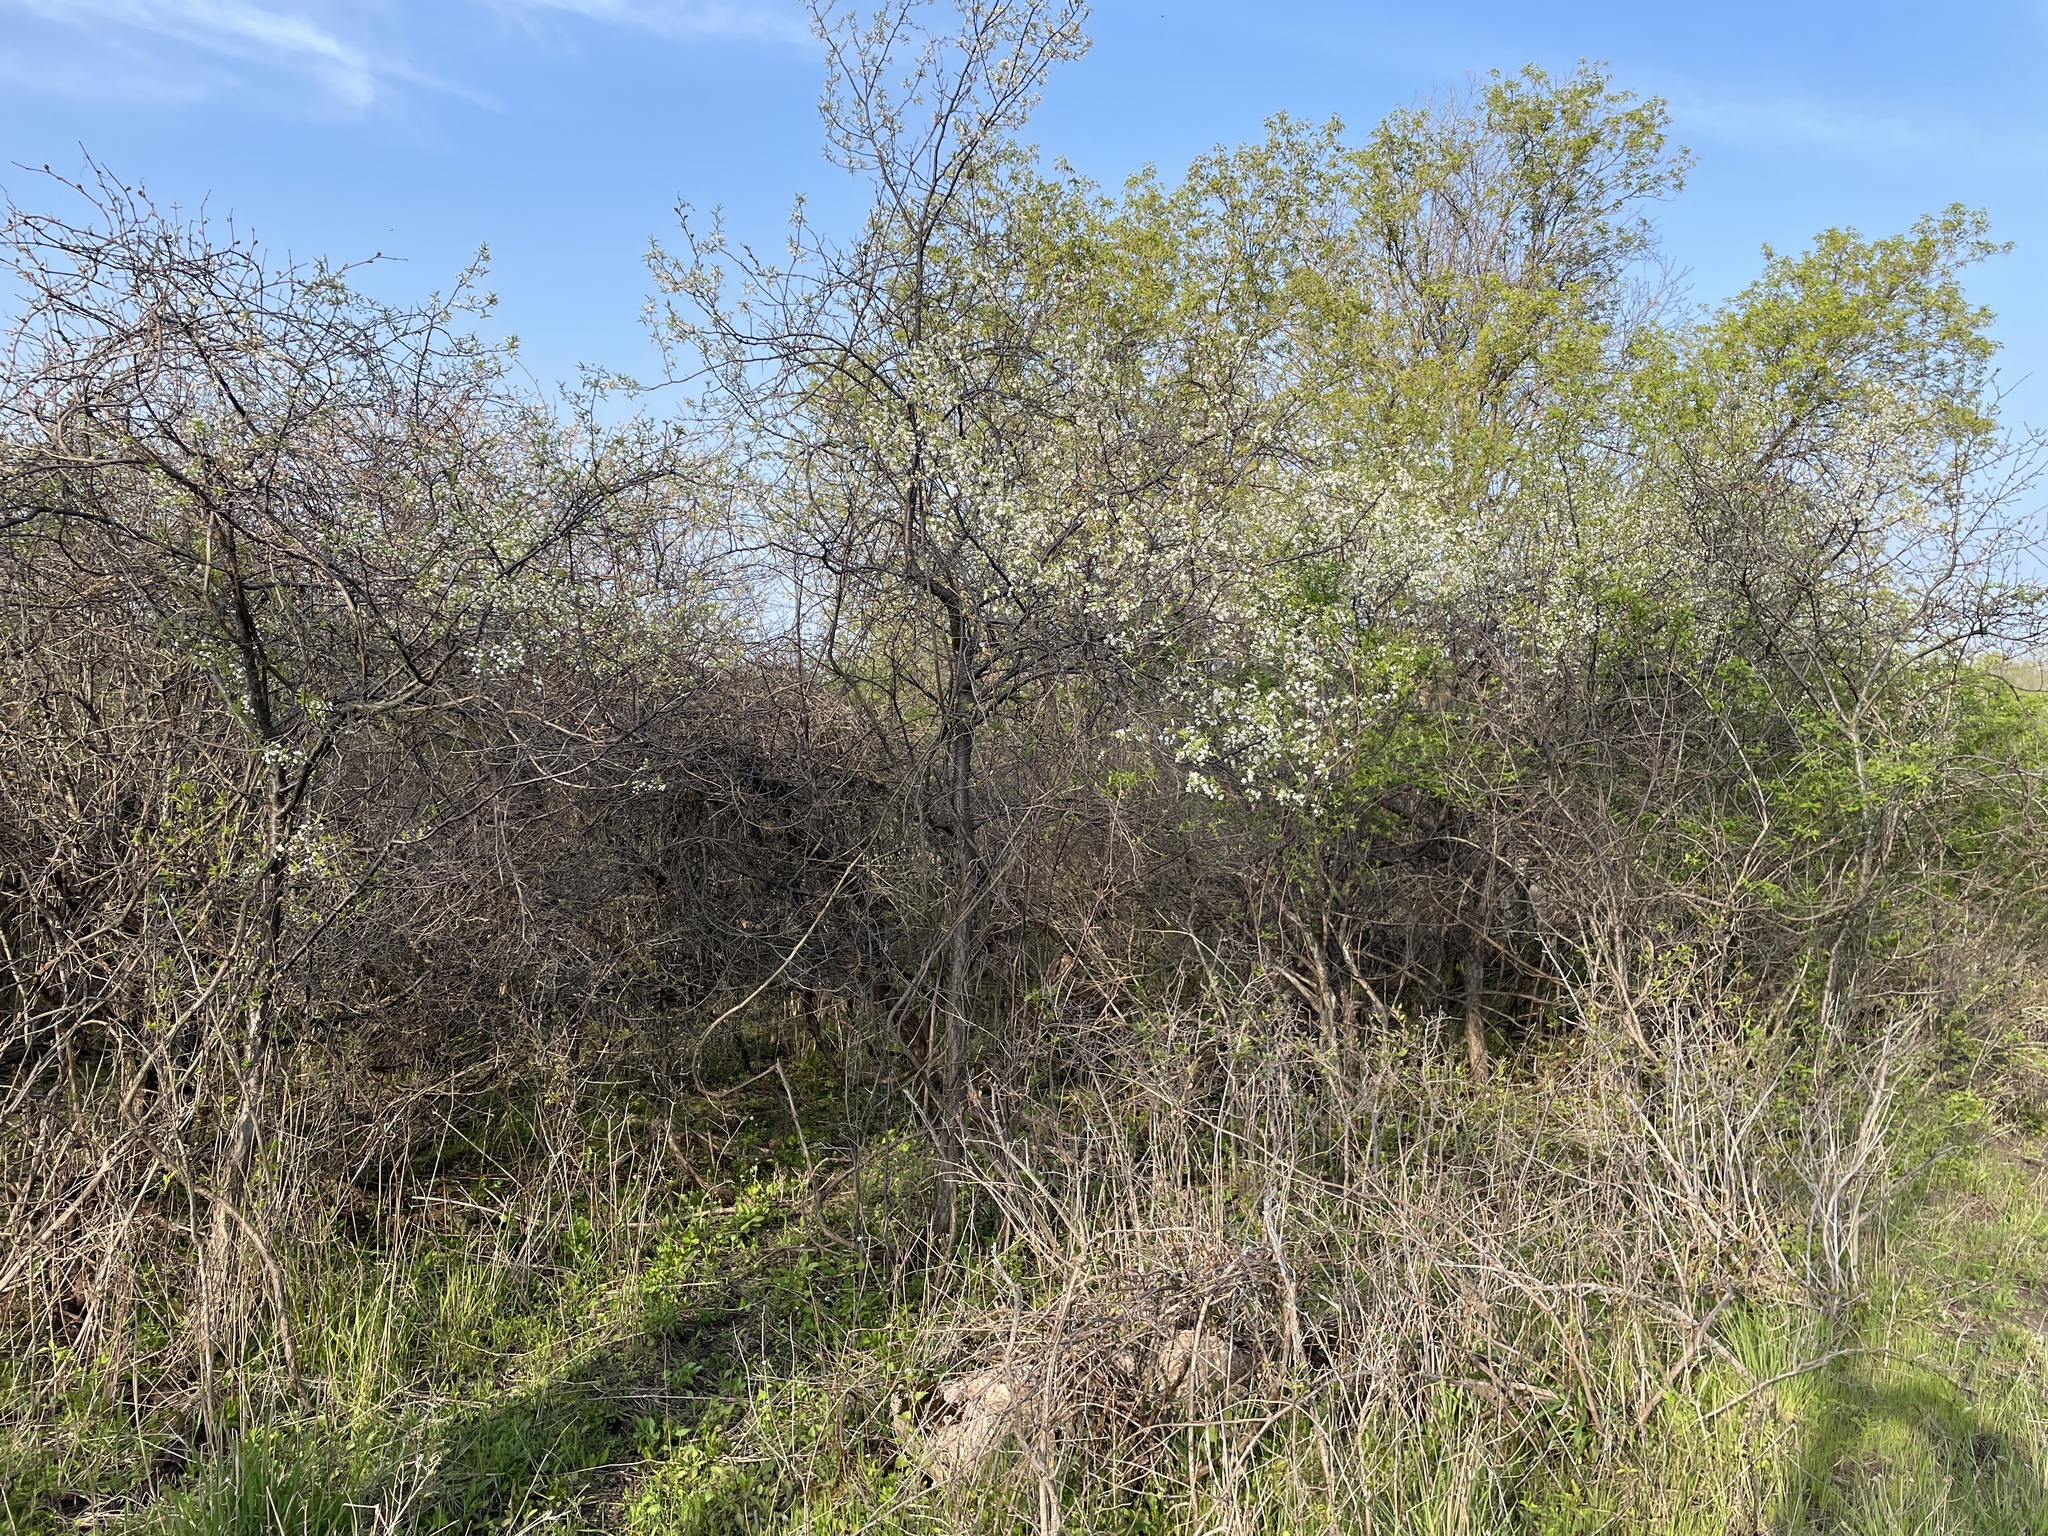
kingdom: Plantae
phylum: Tracheophyta
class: Magnoliopsida
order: Rosales
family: Rosaceae
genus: Prunus
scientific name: Prunus americana
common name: American plum
